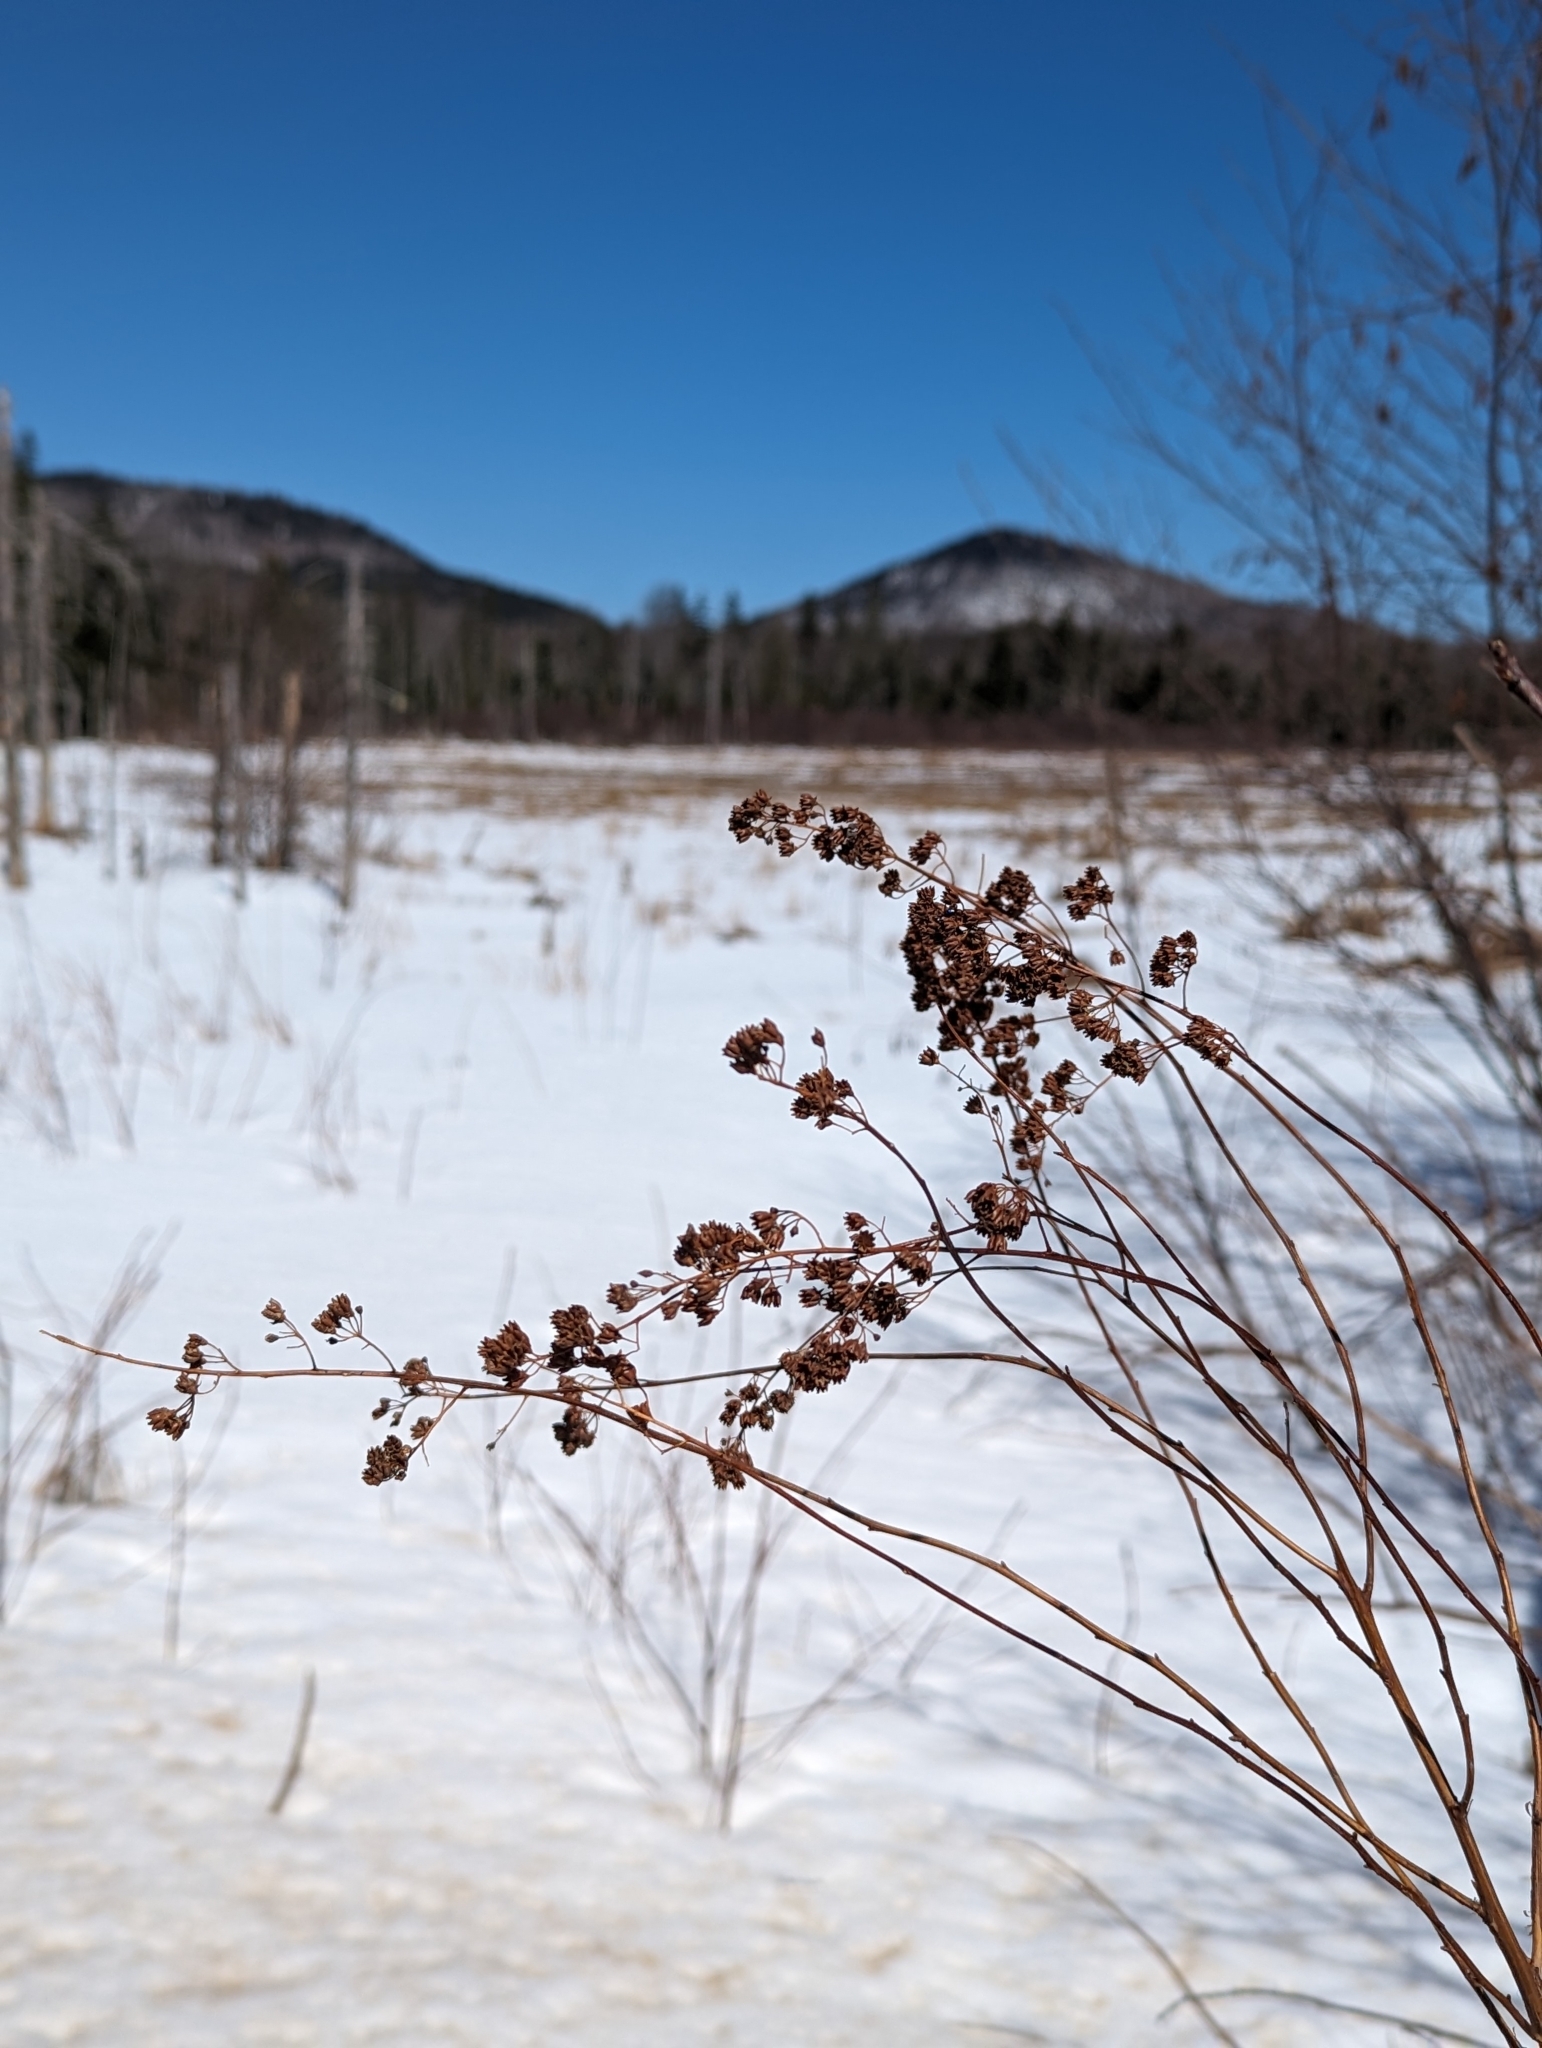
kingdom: Plantae
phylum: Tracheophyta
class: Magnoliopsida
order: Rosales
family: Rosaceae
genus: Spiraea
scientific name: Spiraea alba
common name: Pale bridewort
